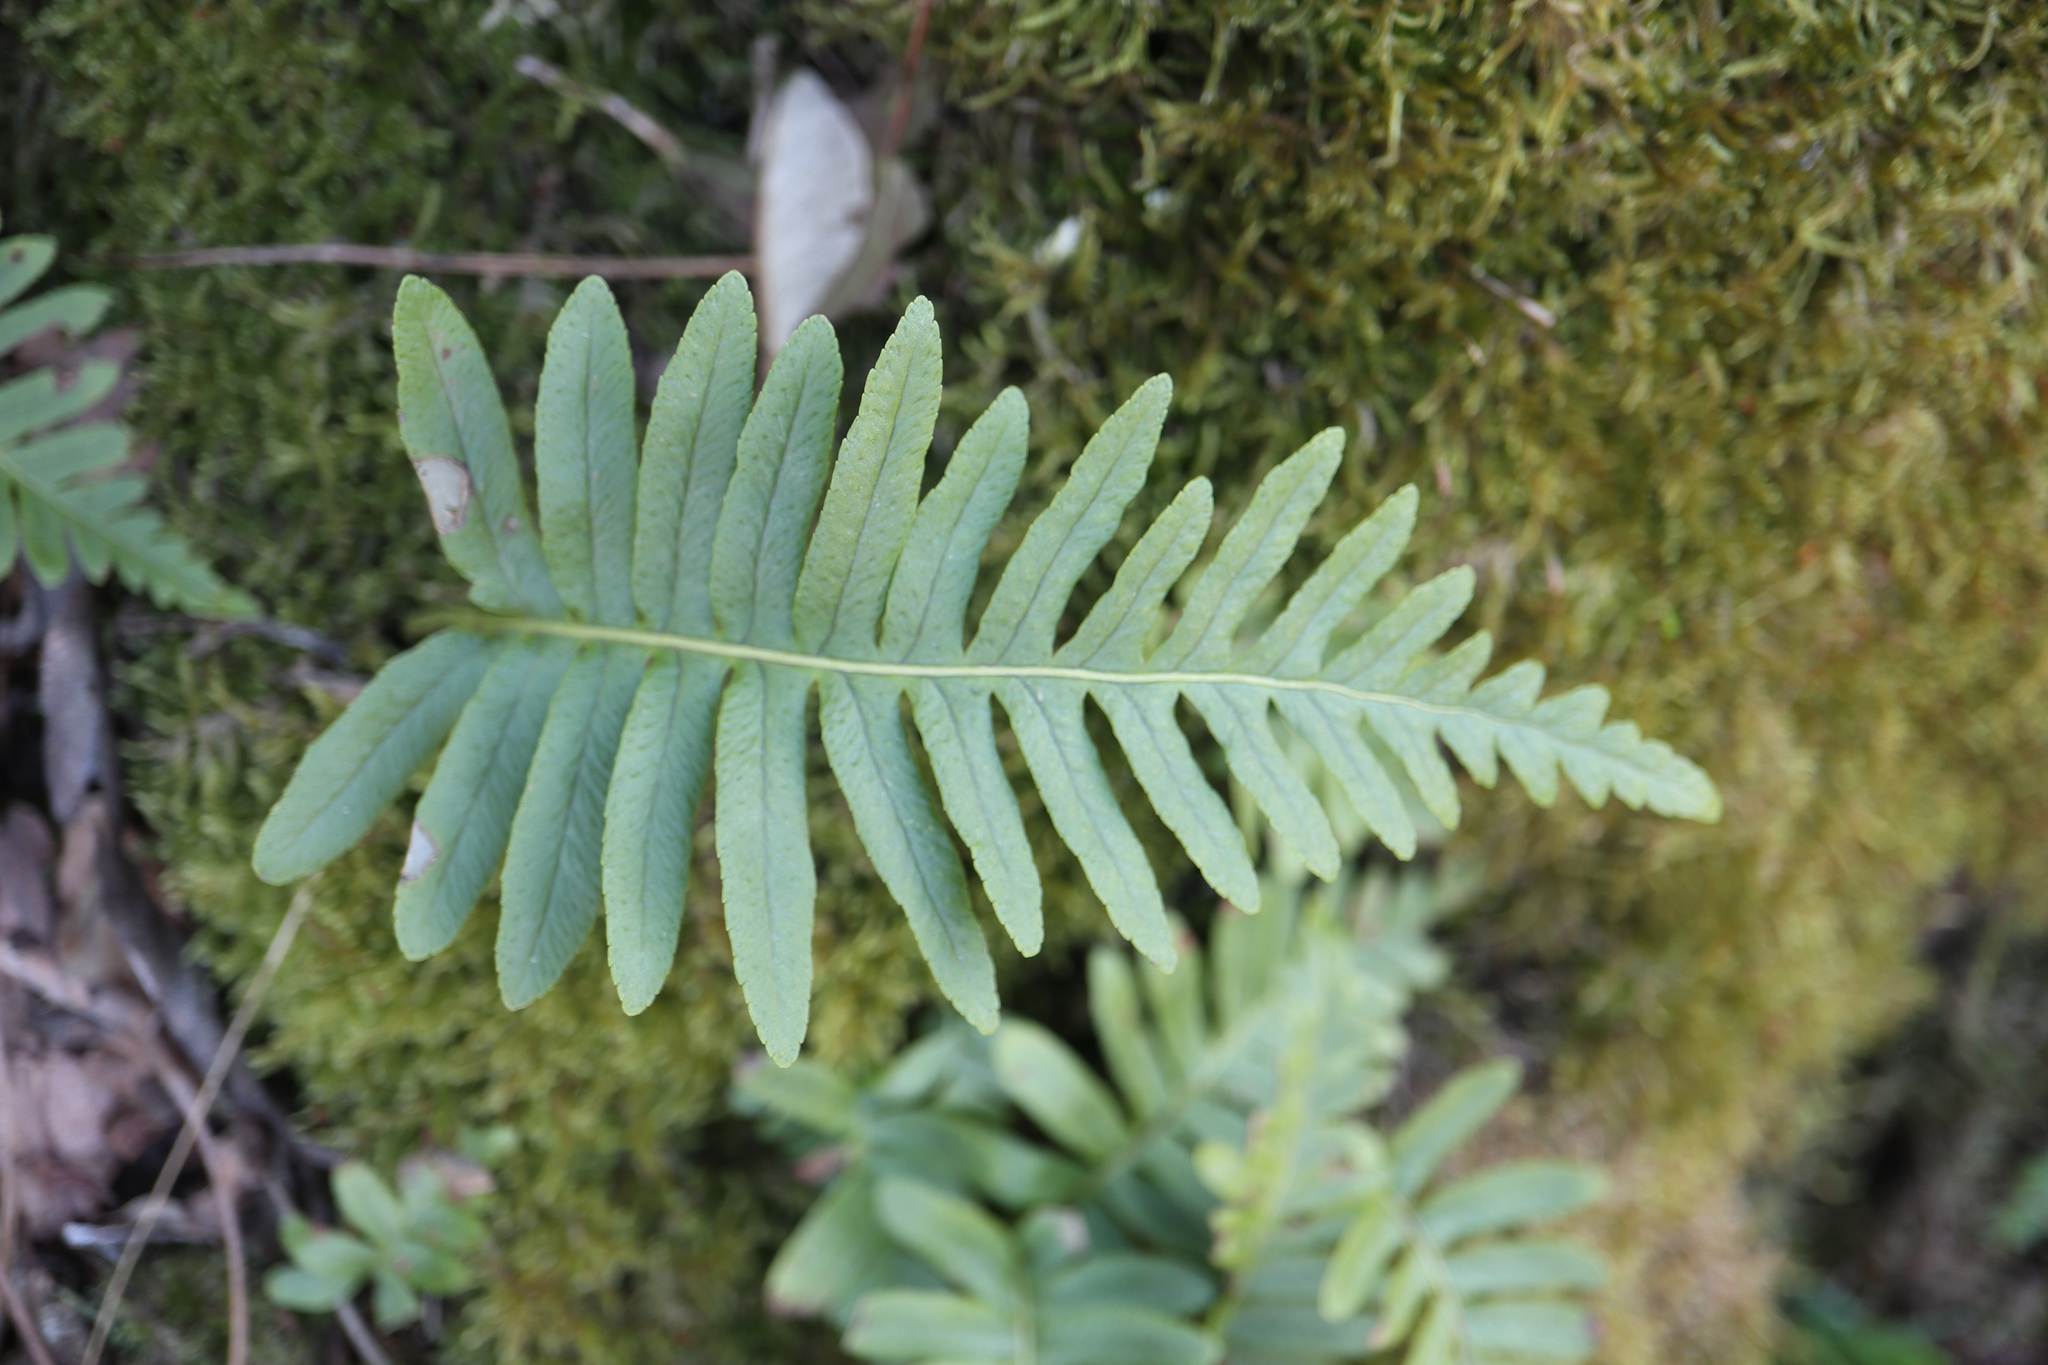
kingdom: Plantae
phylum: Tracheophyta
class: Polypodiopsida
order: Polypodiales
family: Polypodiaceae
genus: Polypodium
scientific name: Polypodium vulgare
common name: Common polypody
